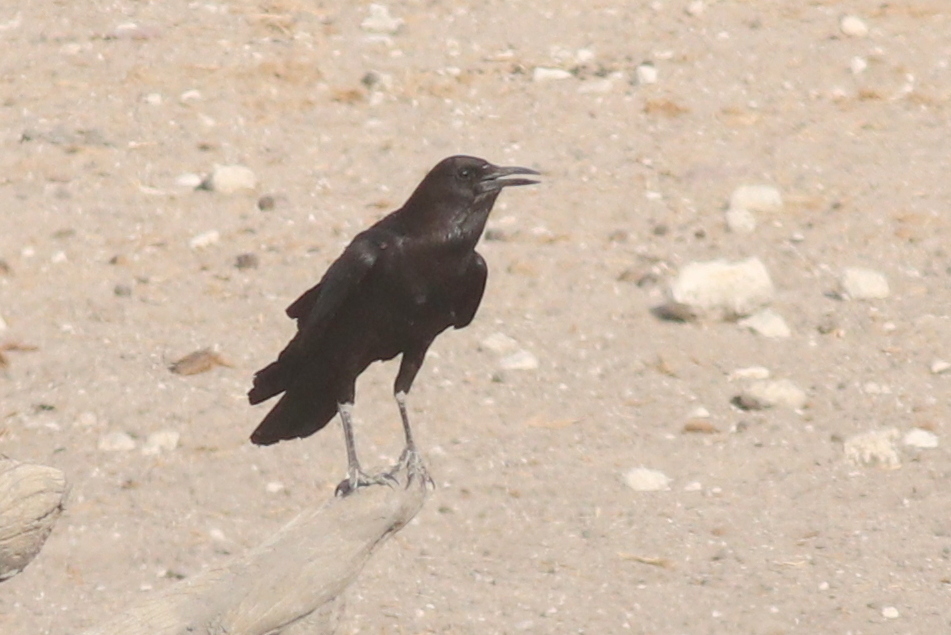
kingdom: Animalia
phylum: Chordata
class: Aves
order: Passeriformes
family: Corvidae
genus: Corvus
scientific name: Corvus capensis
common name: Cape crow
